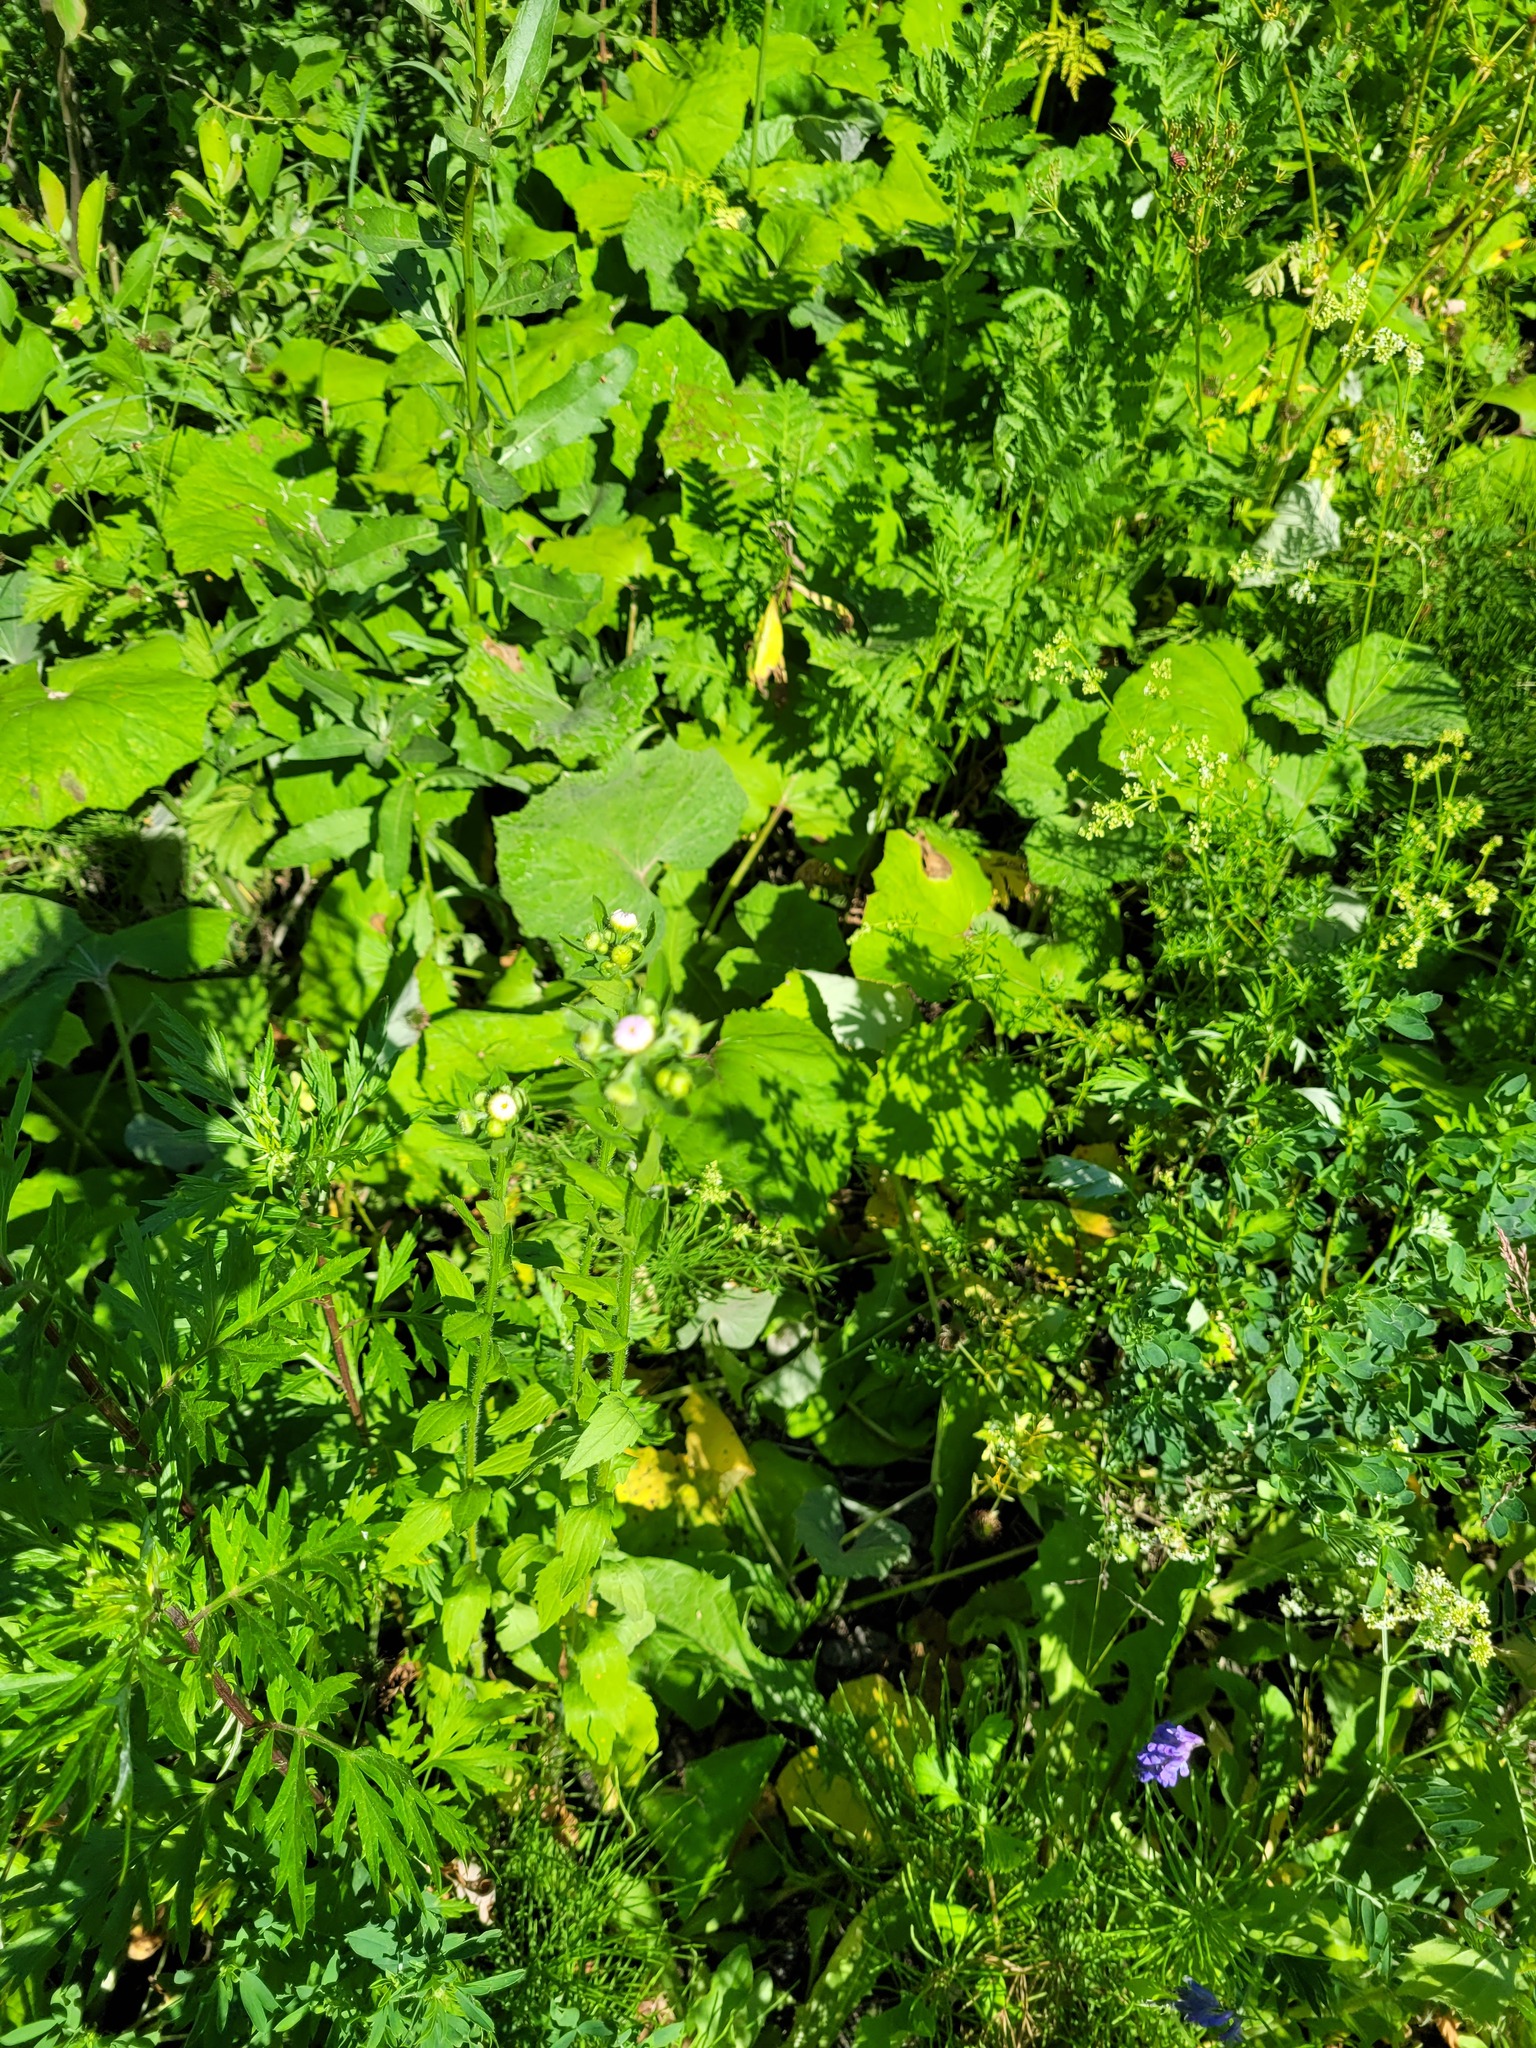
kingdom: Plantae
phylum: Tracheophyta
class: Magnoliopsida
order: Asterales
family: Asteraceae
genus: Erigeron
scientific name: Erigeron annuus
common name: Tall fleabane
